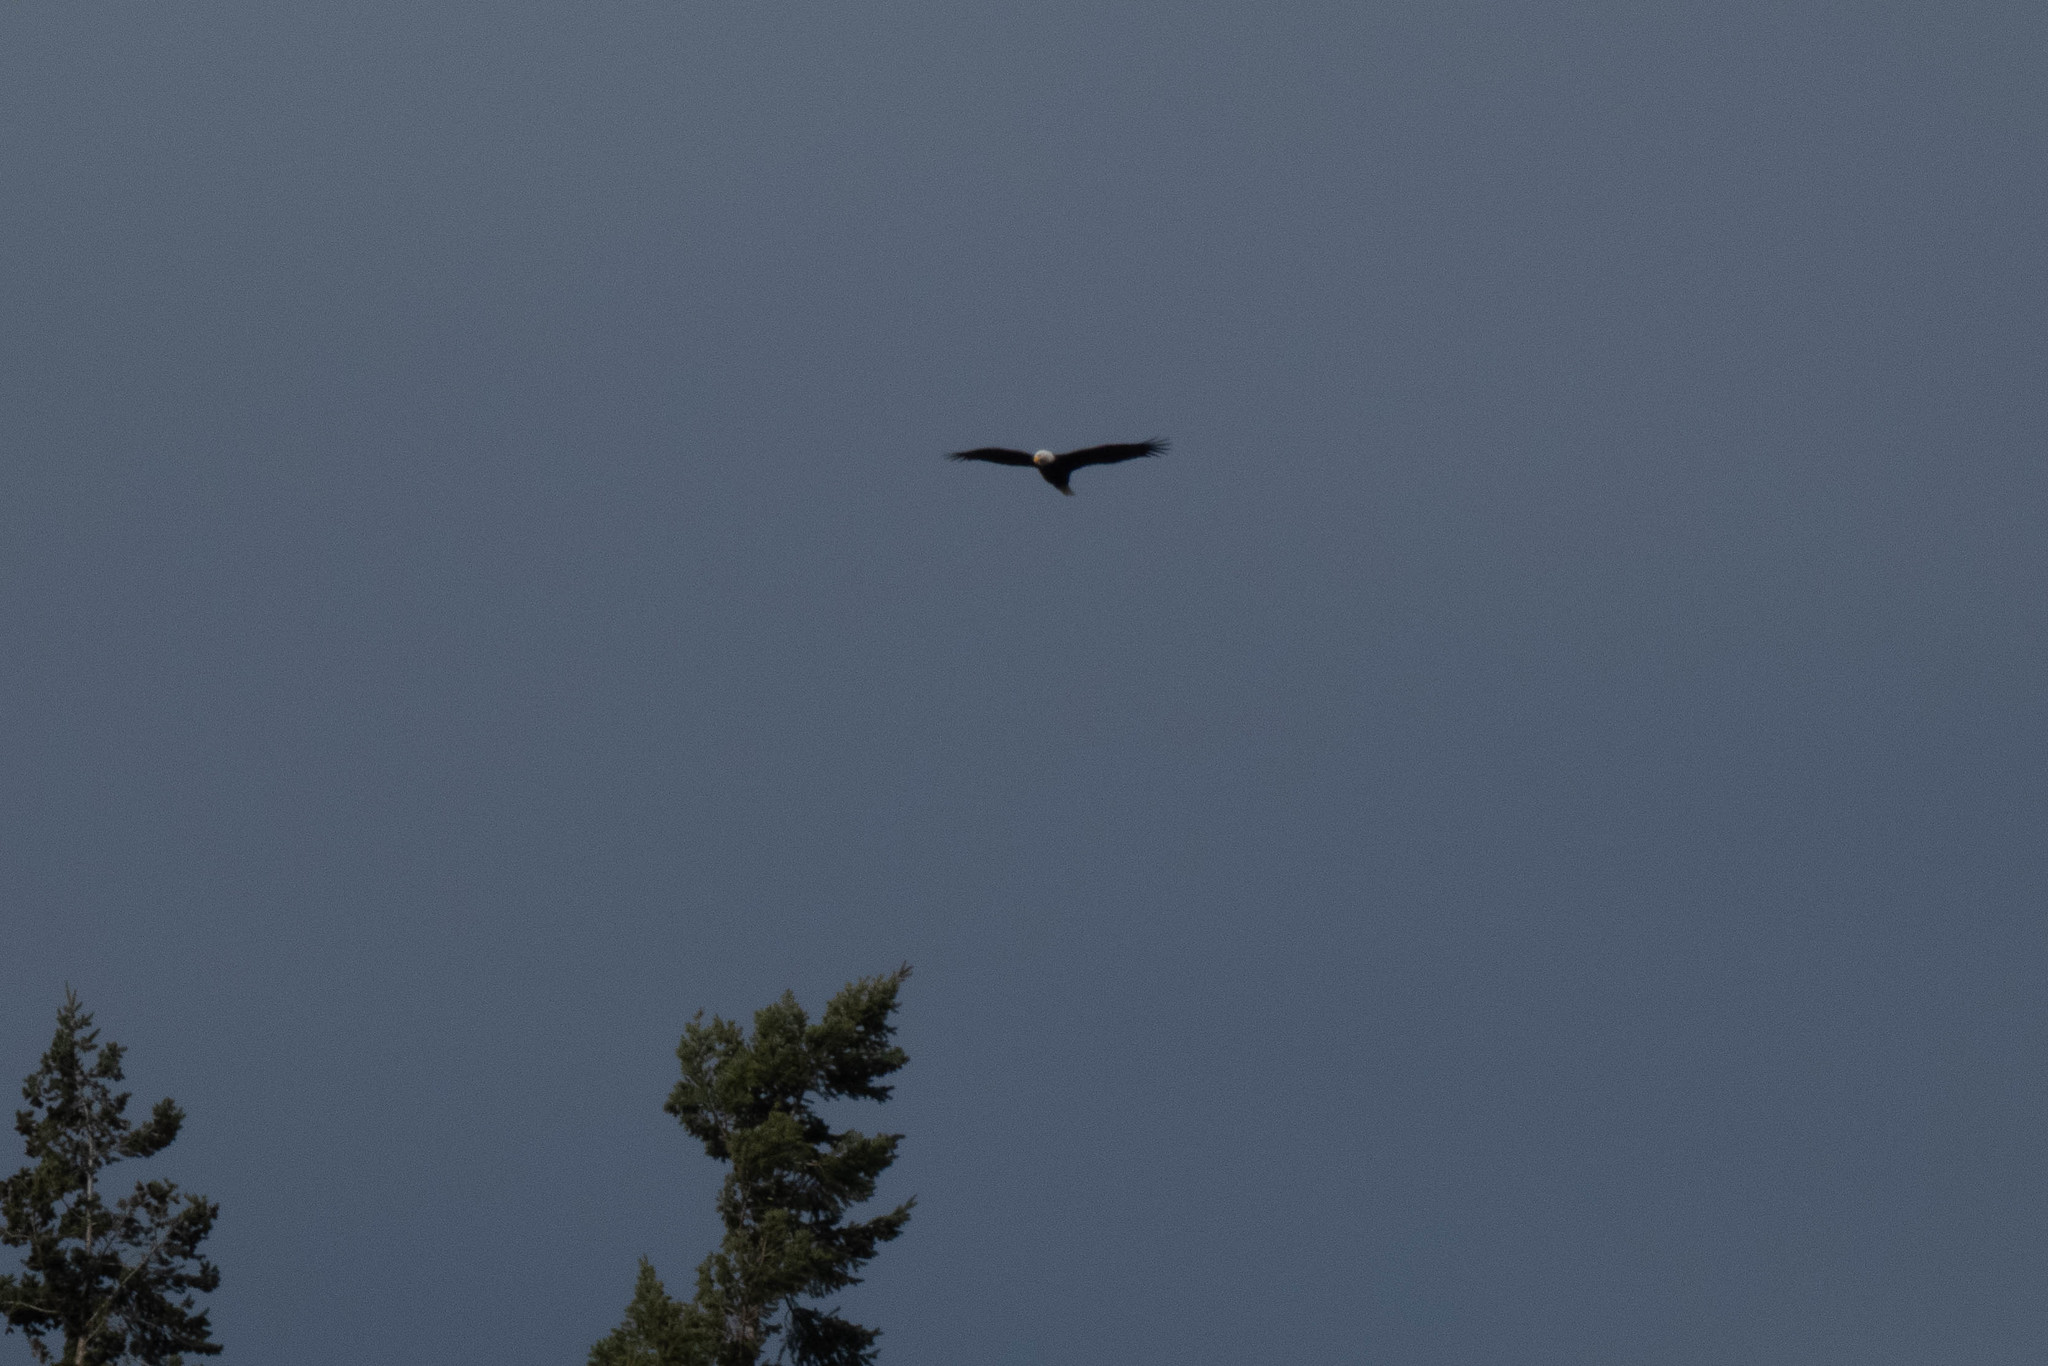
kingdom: Animalia
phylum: Chordata
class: Aves
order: Accipitriformes
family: Accipitridae
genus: Haliaeetus
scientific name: Haliaeetus leucocephalus
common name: Bald eagle
